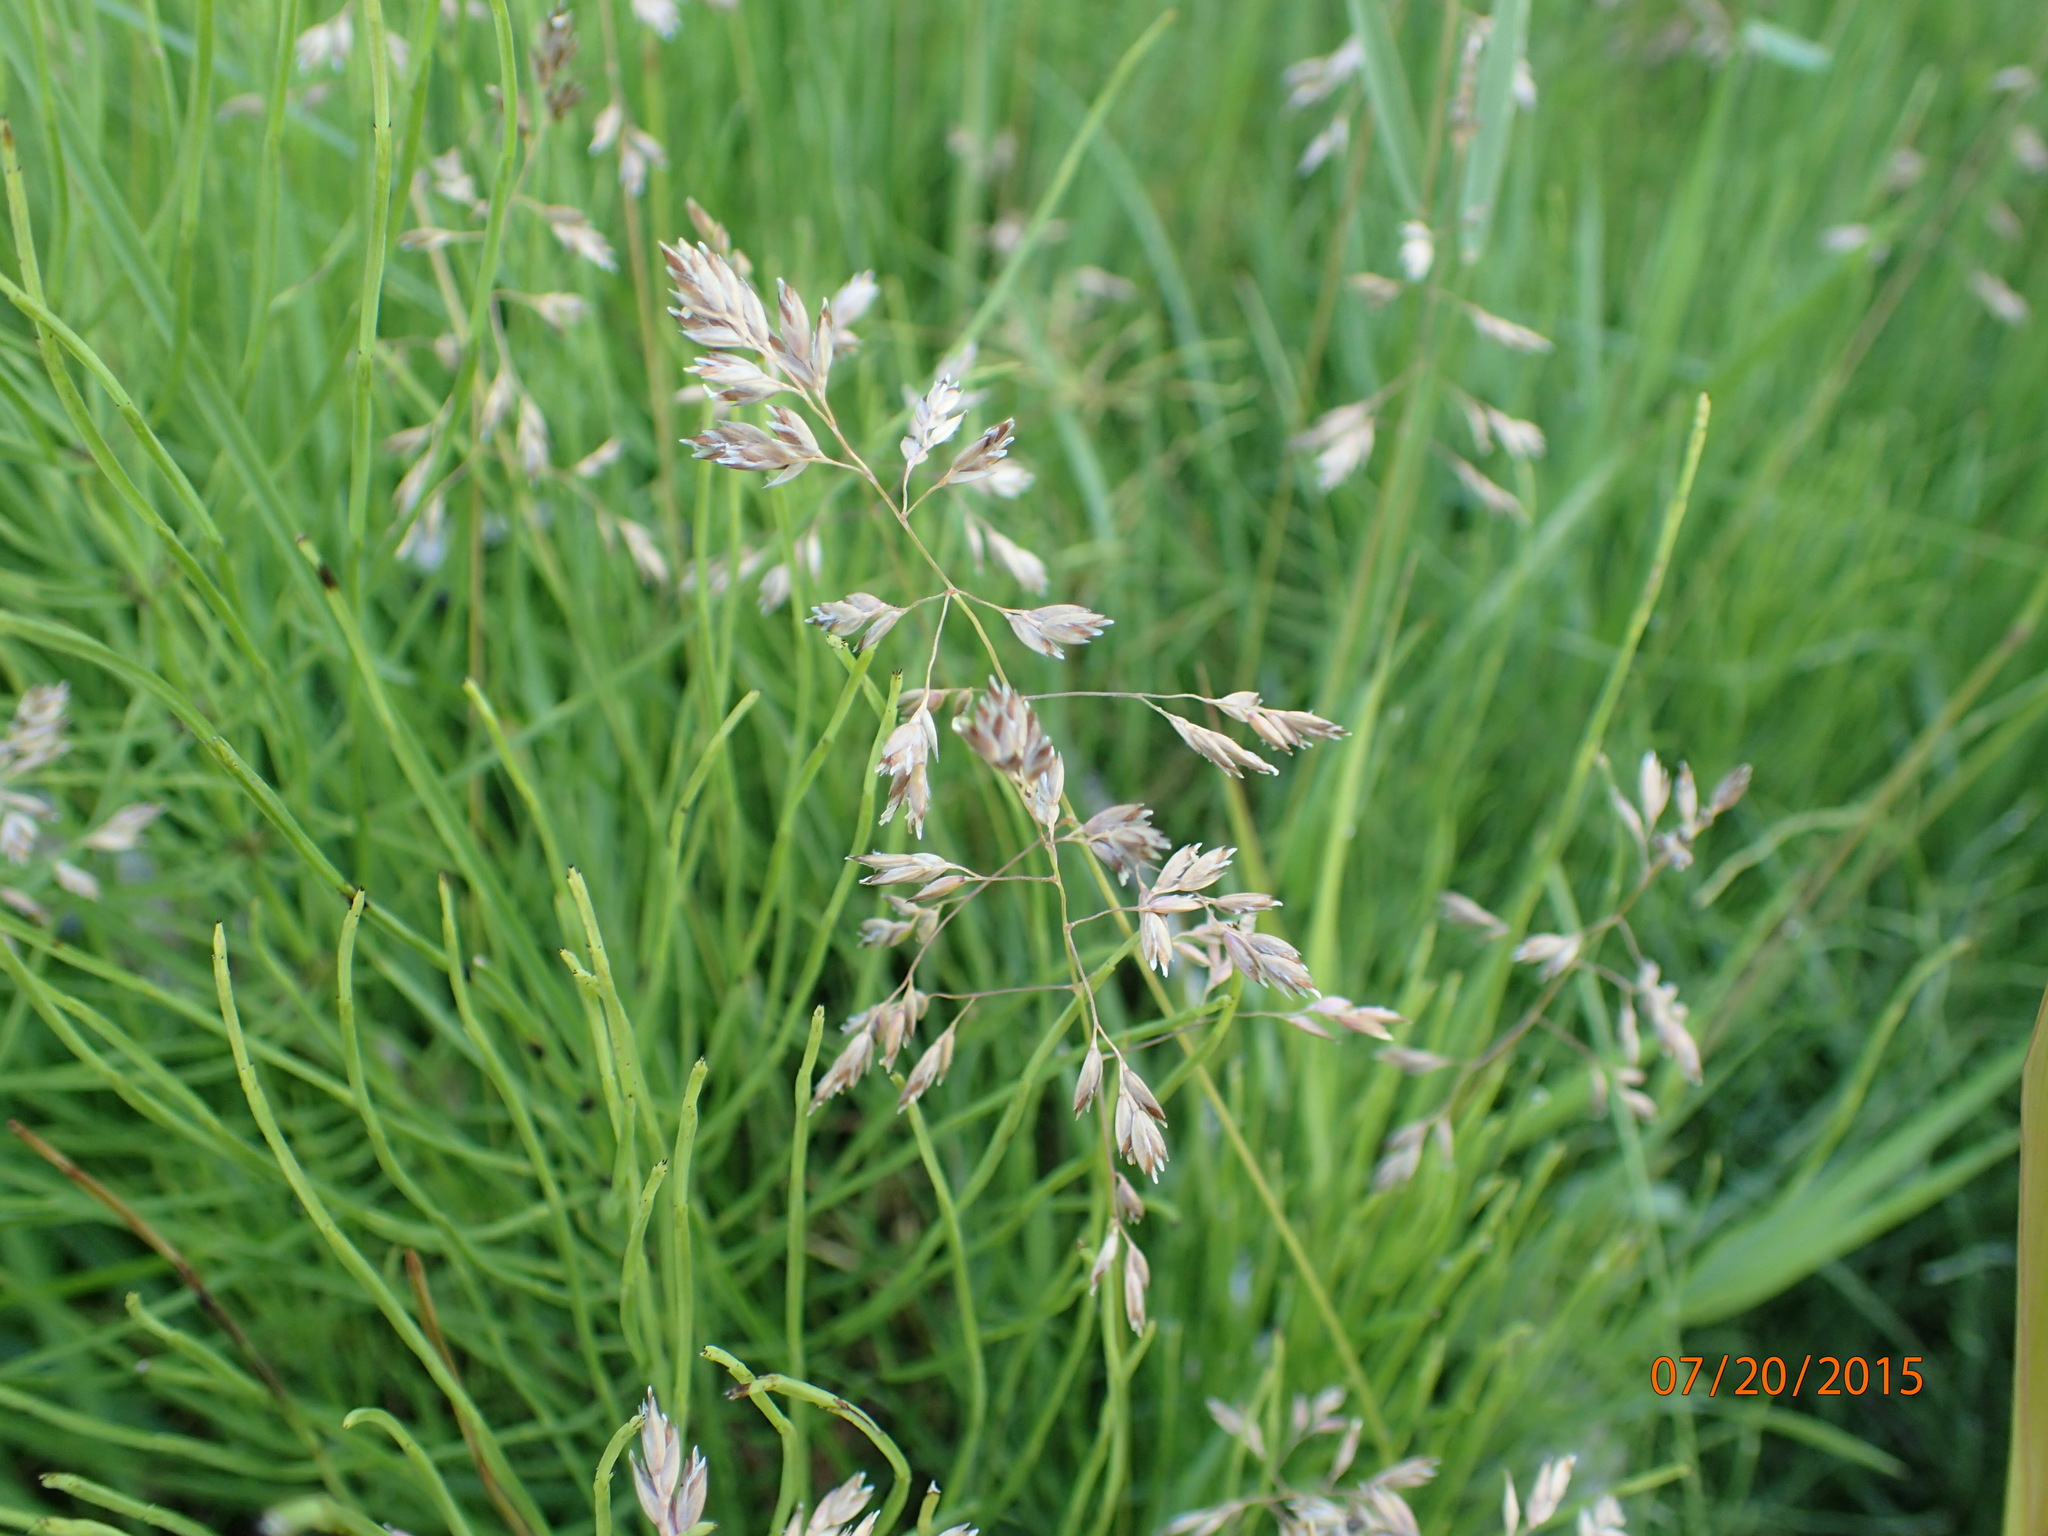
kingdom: Plantae
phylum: Tracheophyta
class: Liliopsida
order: Poales
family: Poaceae
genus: Poa
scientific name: Poa pratensis
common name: Kentucky bluegrass
